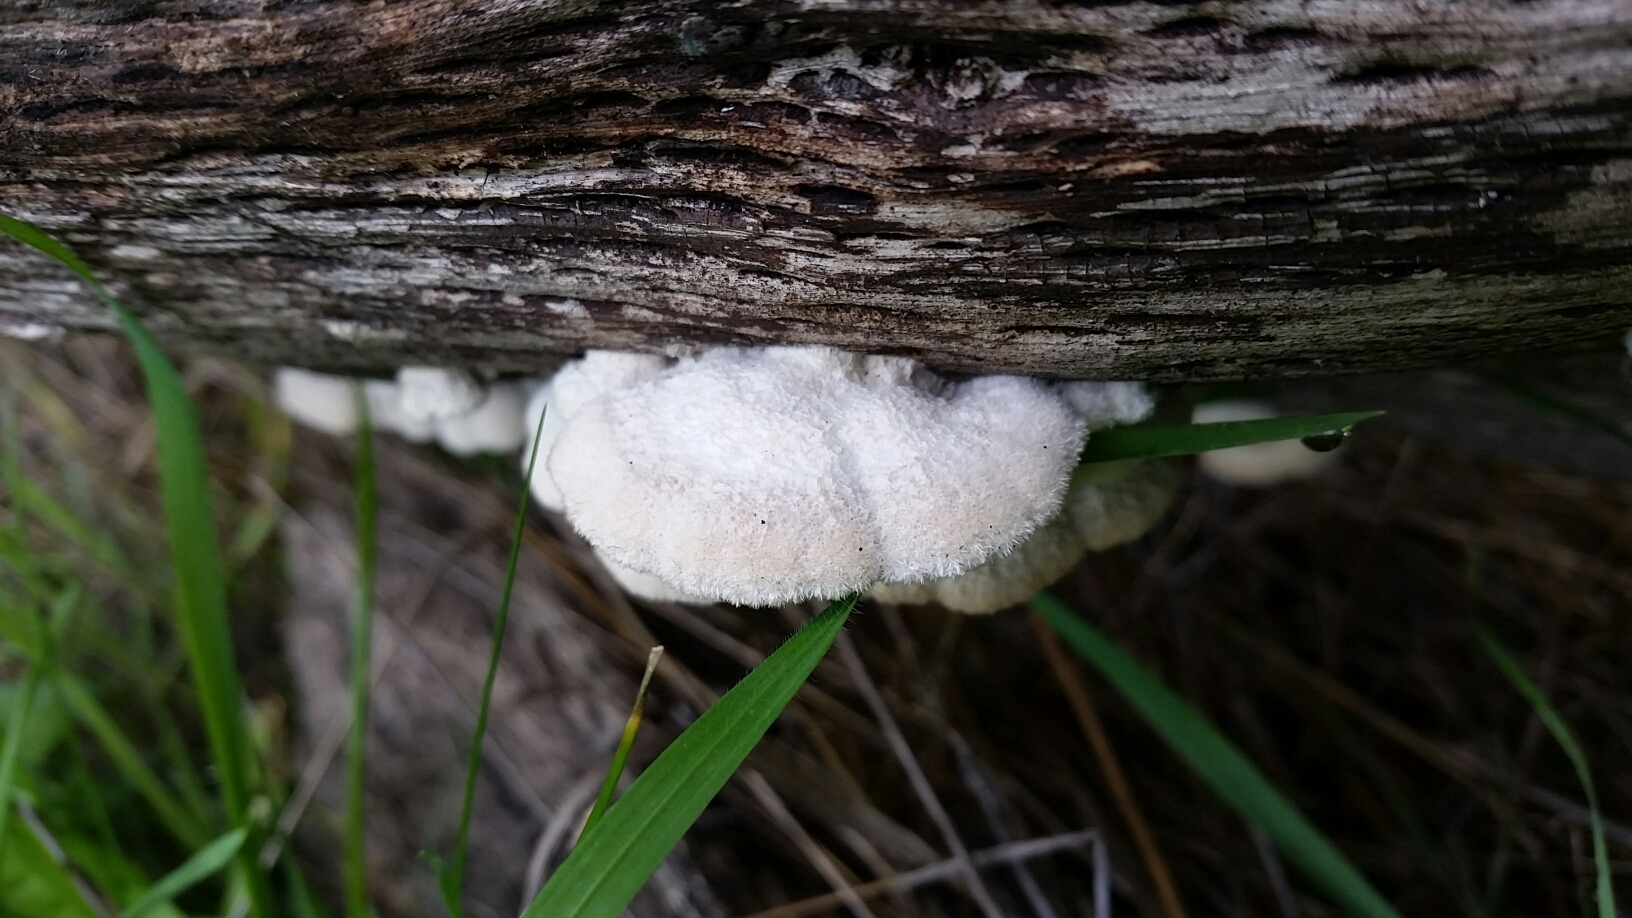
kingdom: Fungi
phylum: Basidiomycota
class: Agaricomycetes
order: Agaricales
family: Schizophyllaceae
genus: Schizophyllum
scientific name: Schizophyllum commune
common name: Common porecrust
